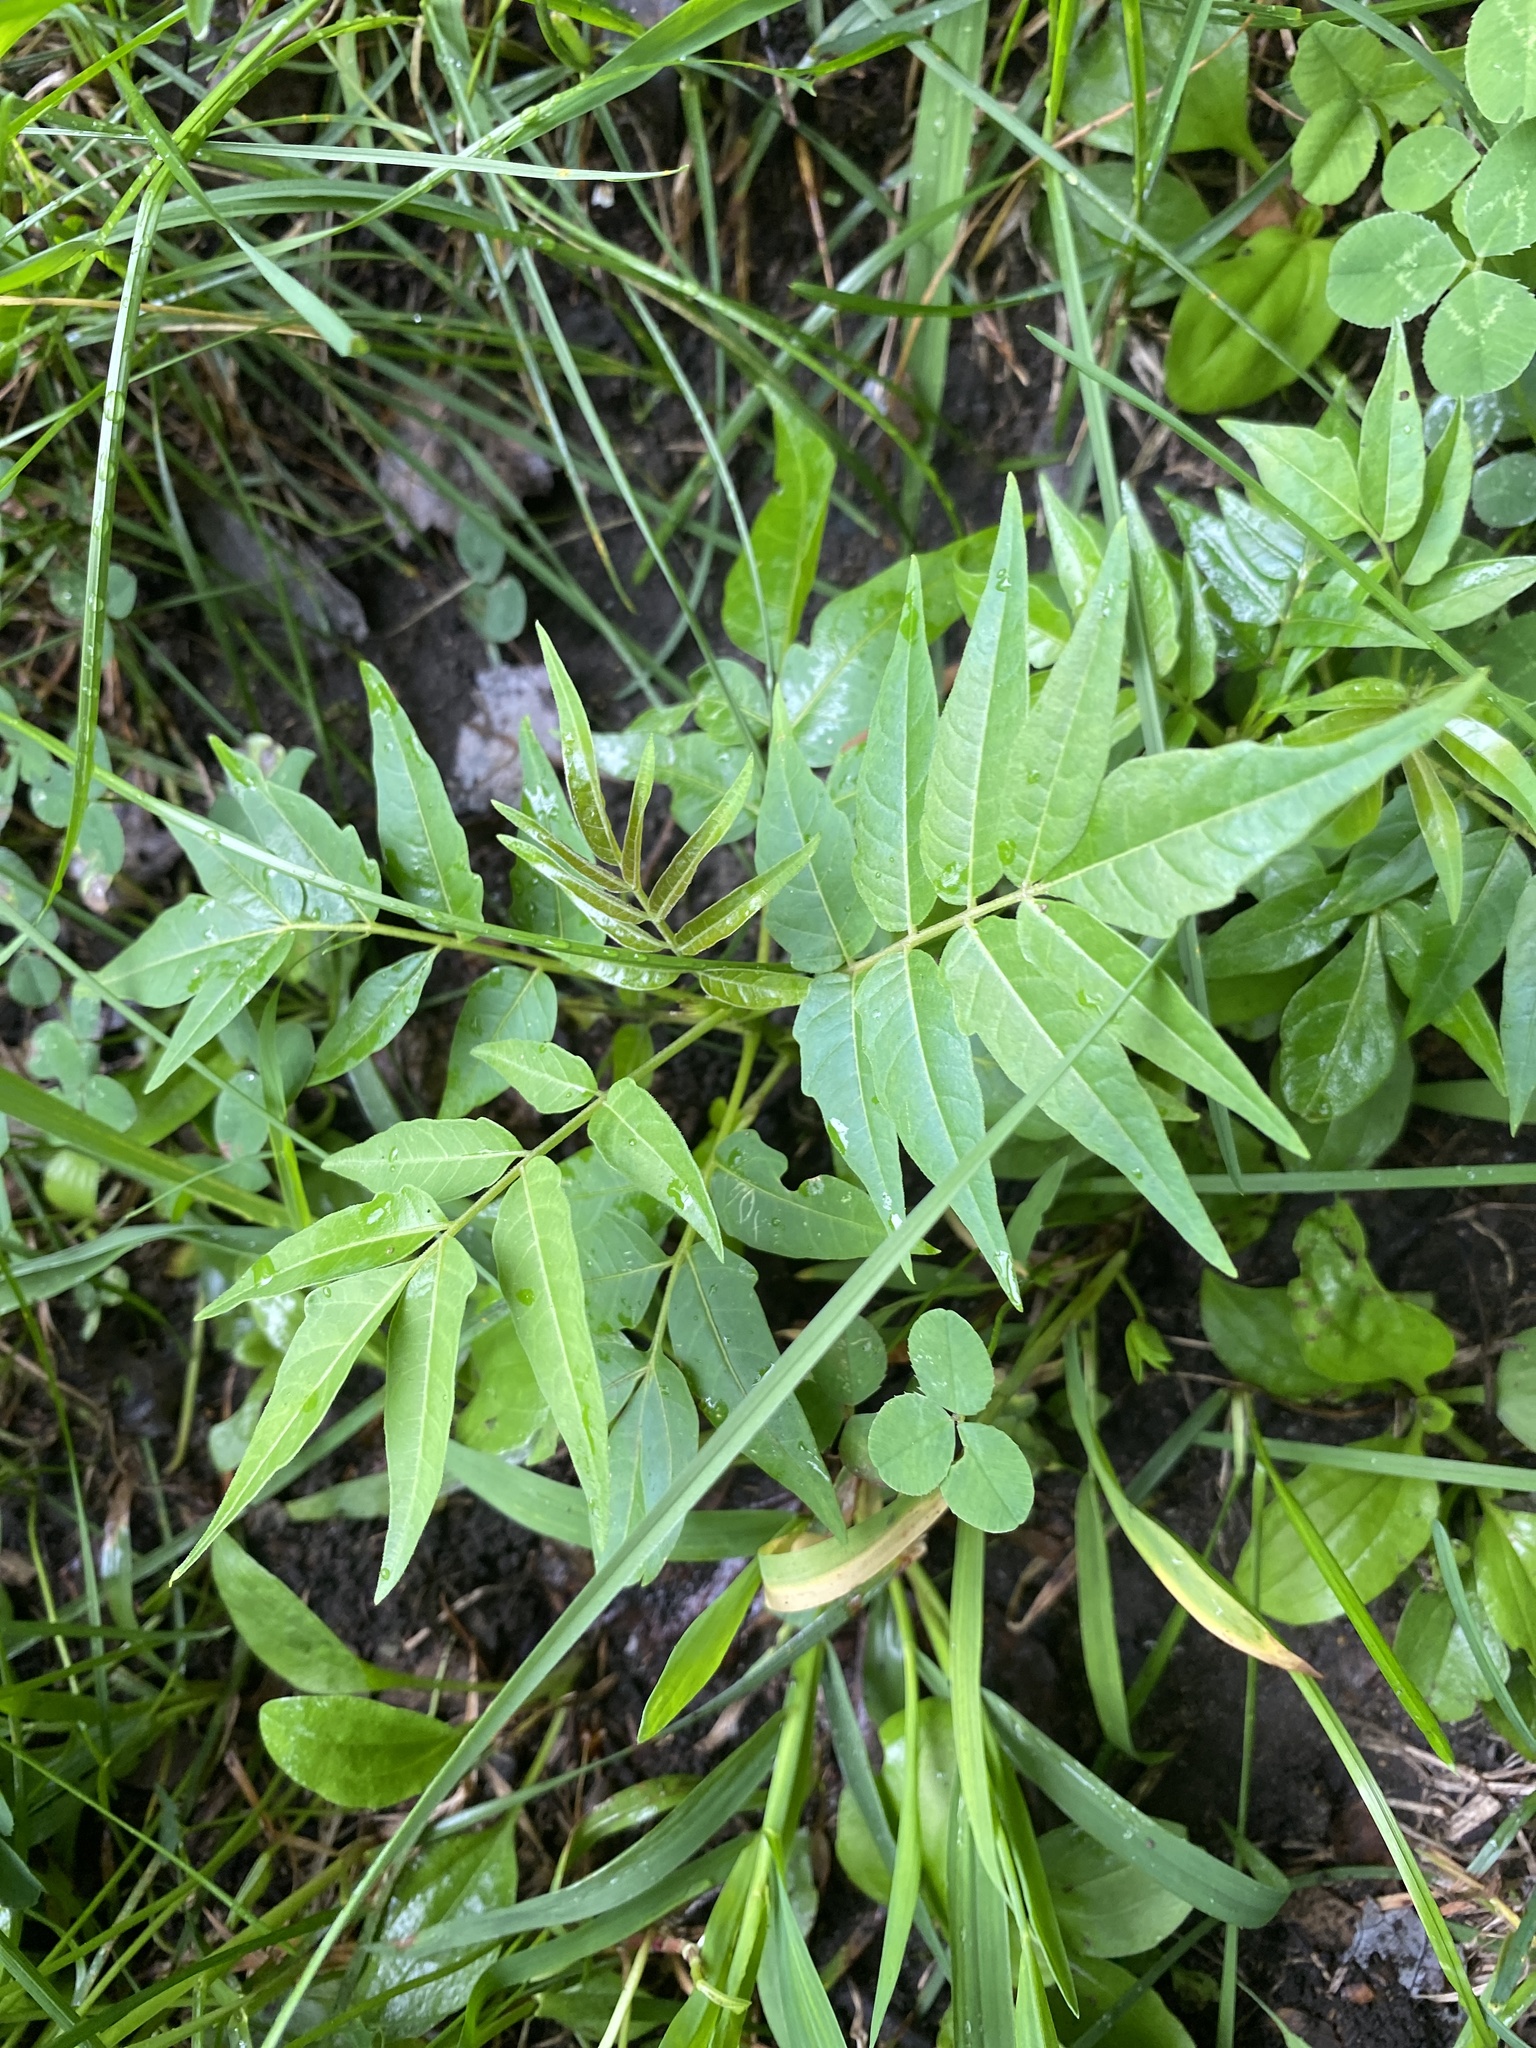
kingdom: Plantae
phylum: Tracheophyta
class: Magnoliopsida
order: Sapindales
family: Simaroubaceae
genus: Ailanthus
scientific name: Ailanthus altissima
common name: Tree-of-heaven
